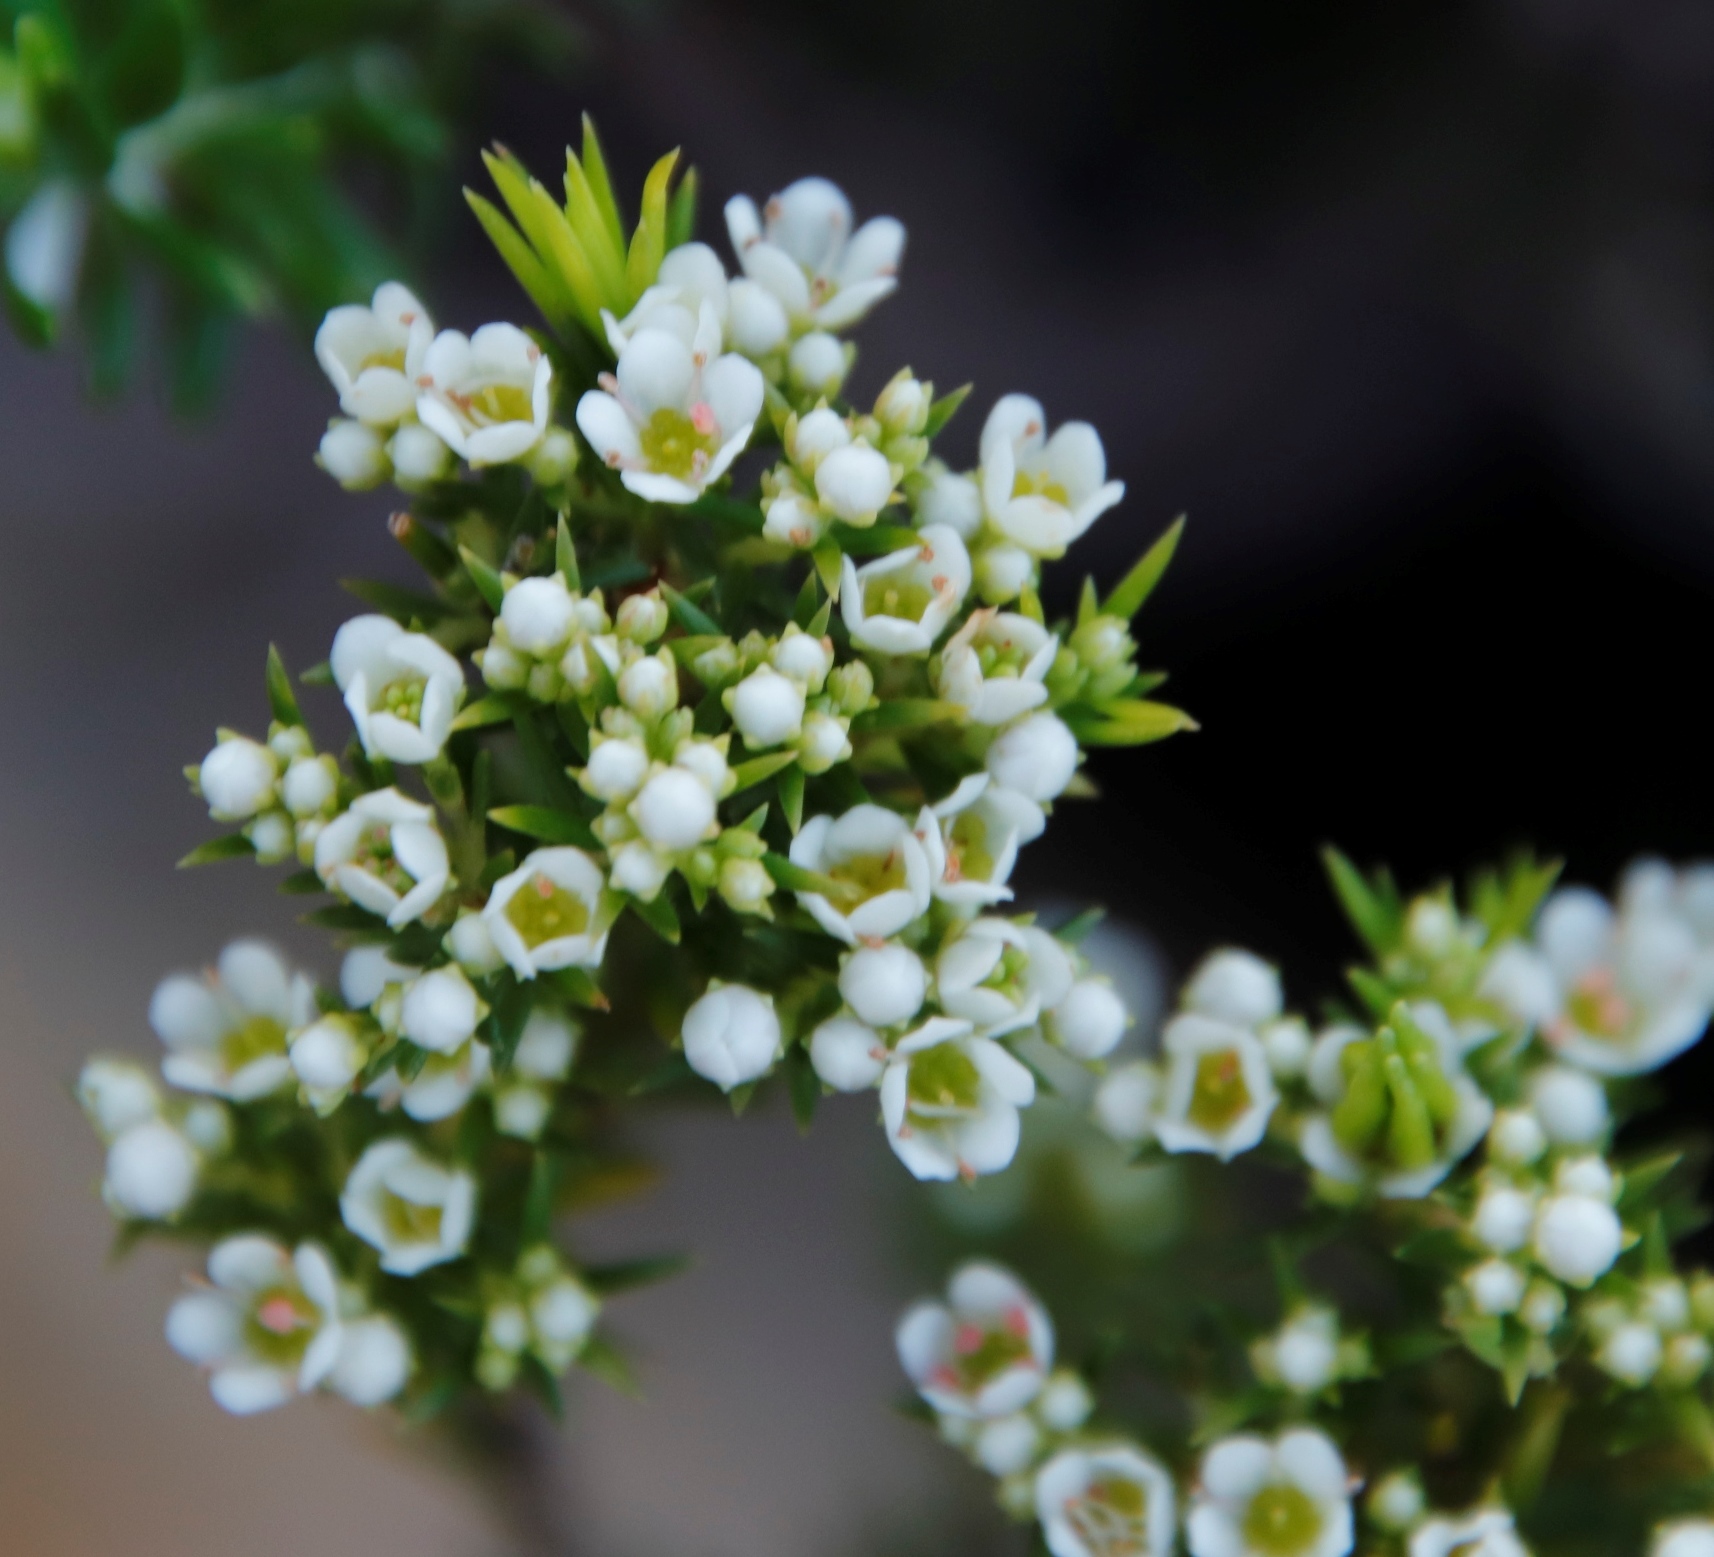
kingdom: Plantae
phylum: Tracheophyta
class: Magnoliopsida
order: Sapindales
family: Rutaceae
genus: Diosma
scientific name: Diosma hirsuta
